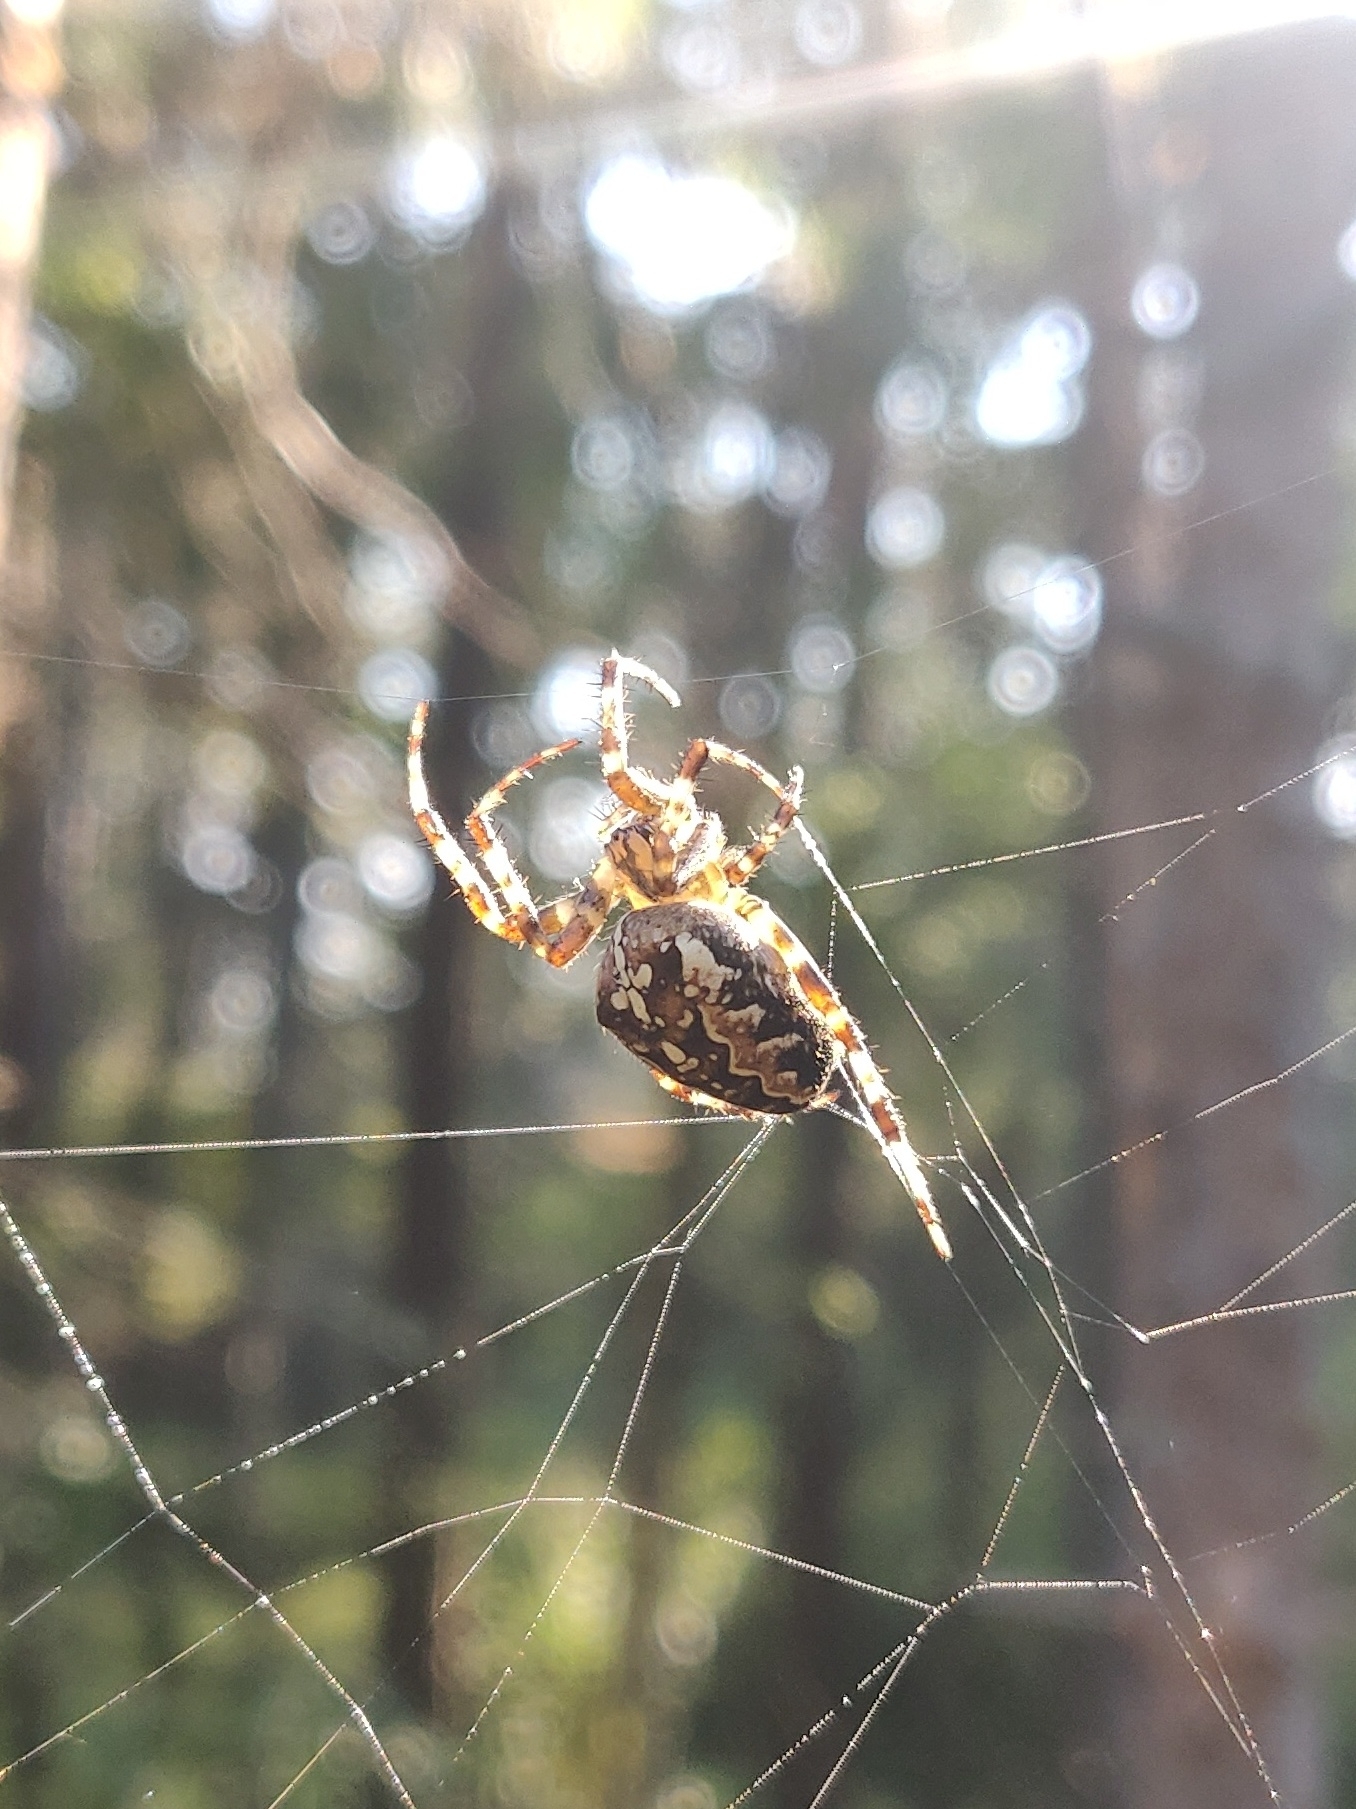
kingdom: Animalia
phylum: Arthropoda
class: Arachnida
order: Araneae
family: Araneidae
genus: Araneus
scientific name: Araneus diadematus
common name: Cross orbweaver
